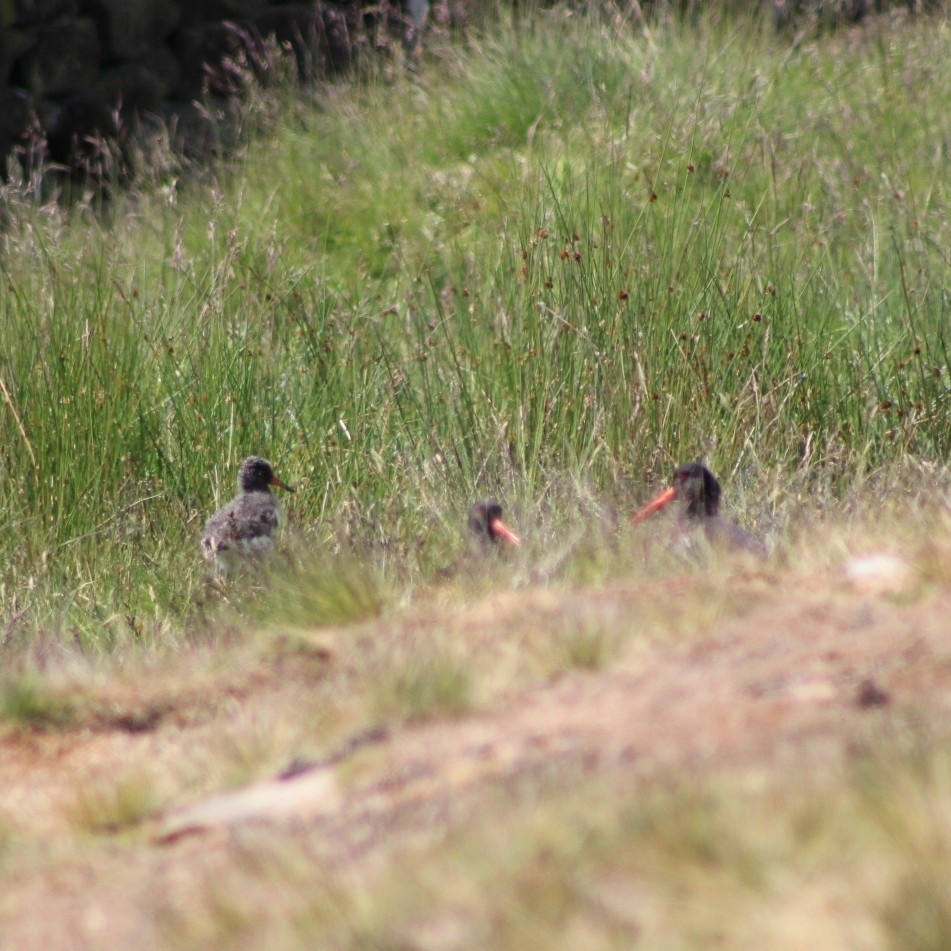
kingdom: Animalia
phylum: Chordata
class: Aves
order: Charadriiformes
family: Haematopodidae
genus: Haematopus
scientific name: Haematopus ostralegus
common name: Eurasian oystercatcher
